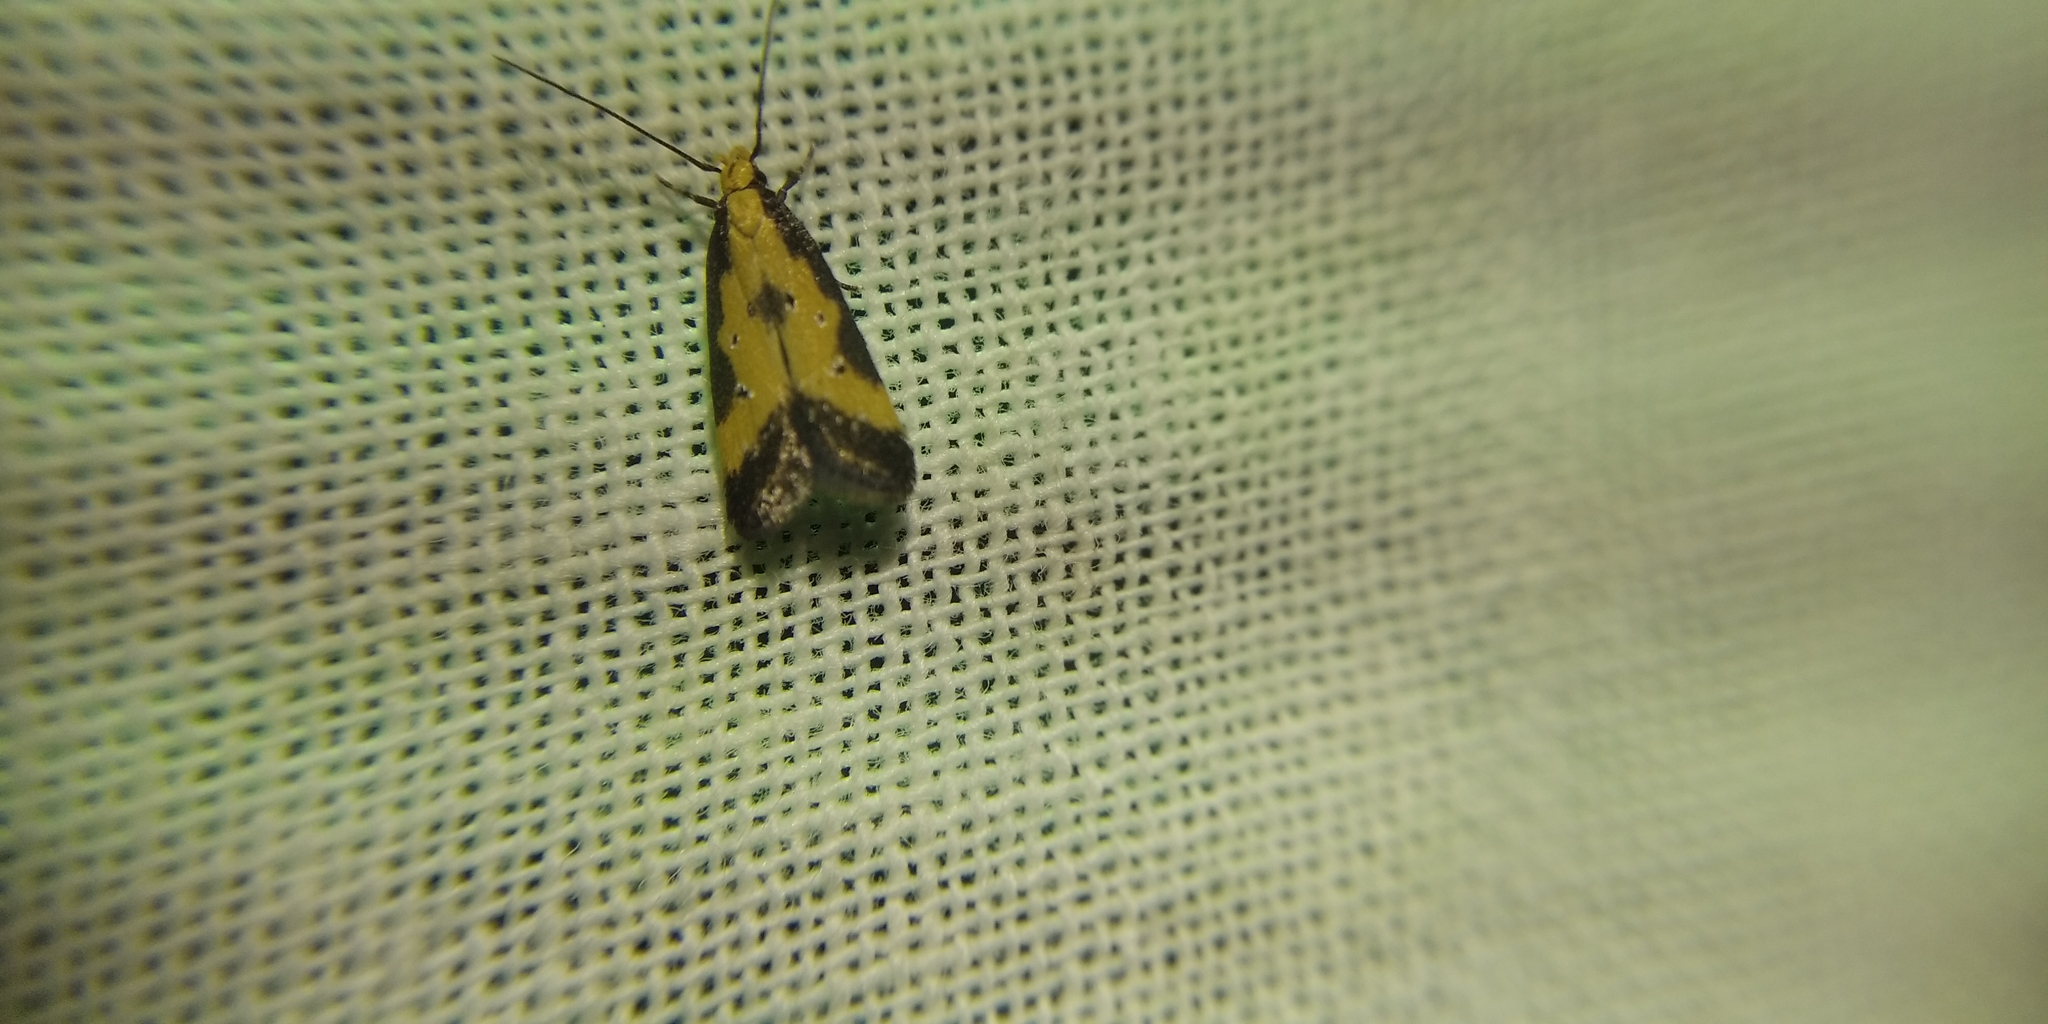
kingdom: Animalia
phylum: Arthropoda
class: Insecta
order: Lepidoptera
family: Gelechiidae
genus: Brachmia
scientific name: Brachmia dimidiella
